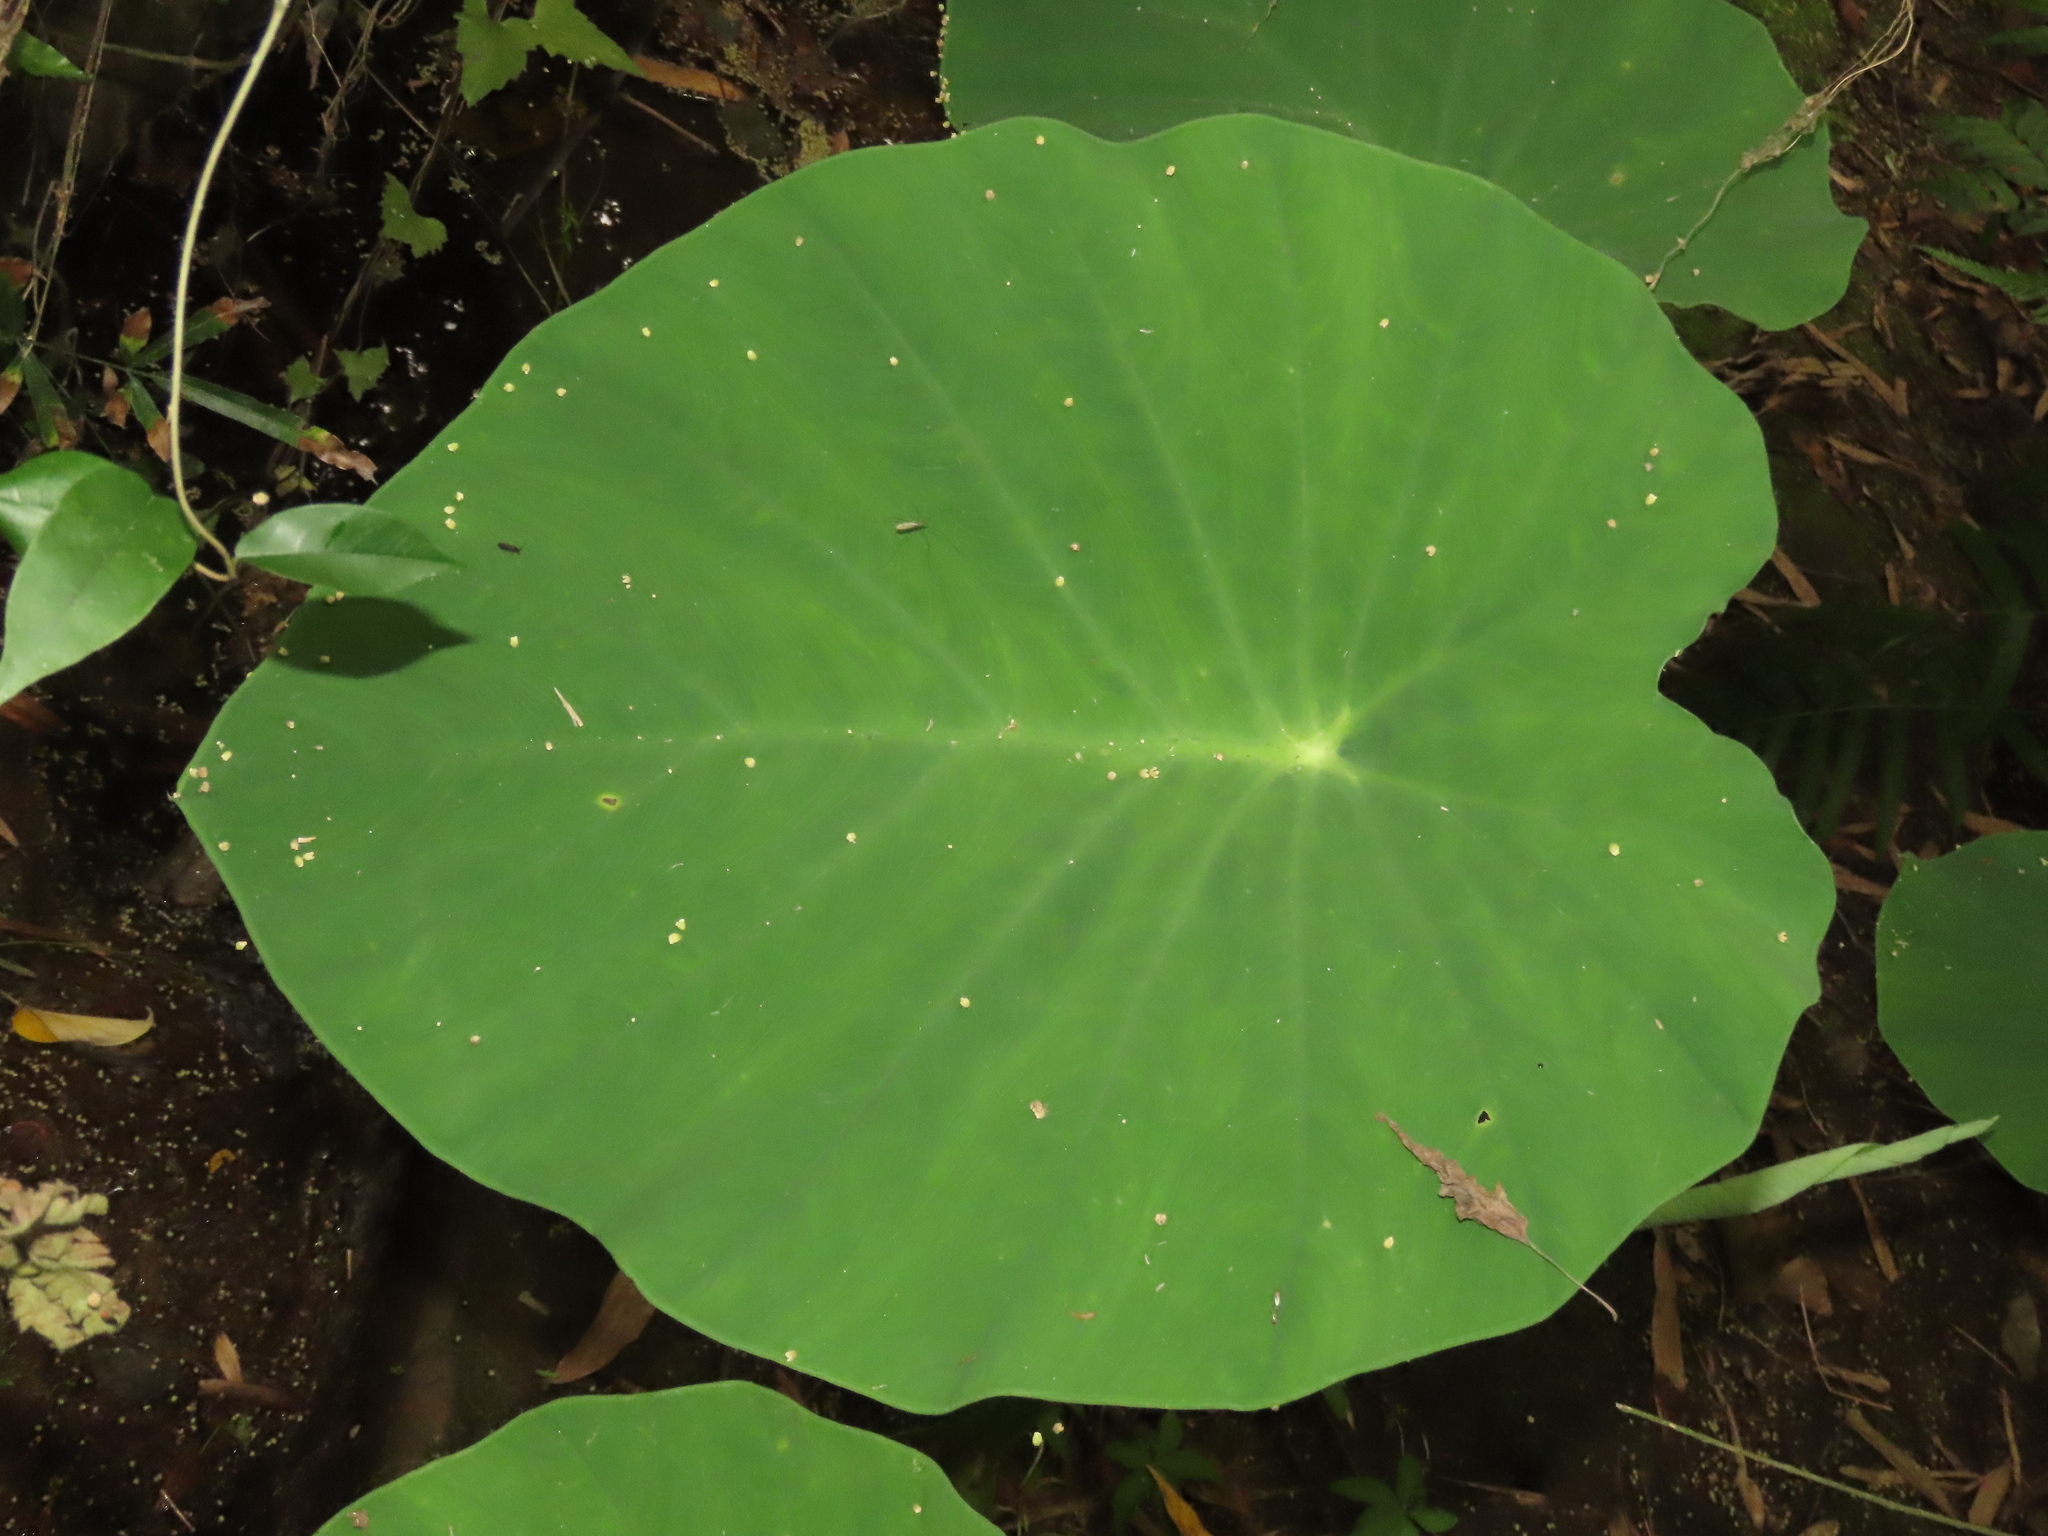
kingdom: Plantae
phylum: Tracheophyta
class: Liliopsida
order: Alismatales
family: Araceae
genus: Colocasia
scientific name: Colocasia esculenta
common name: Taro
